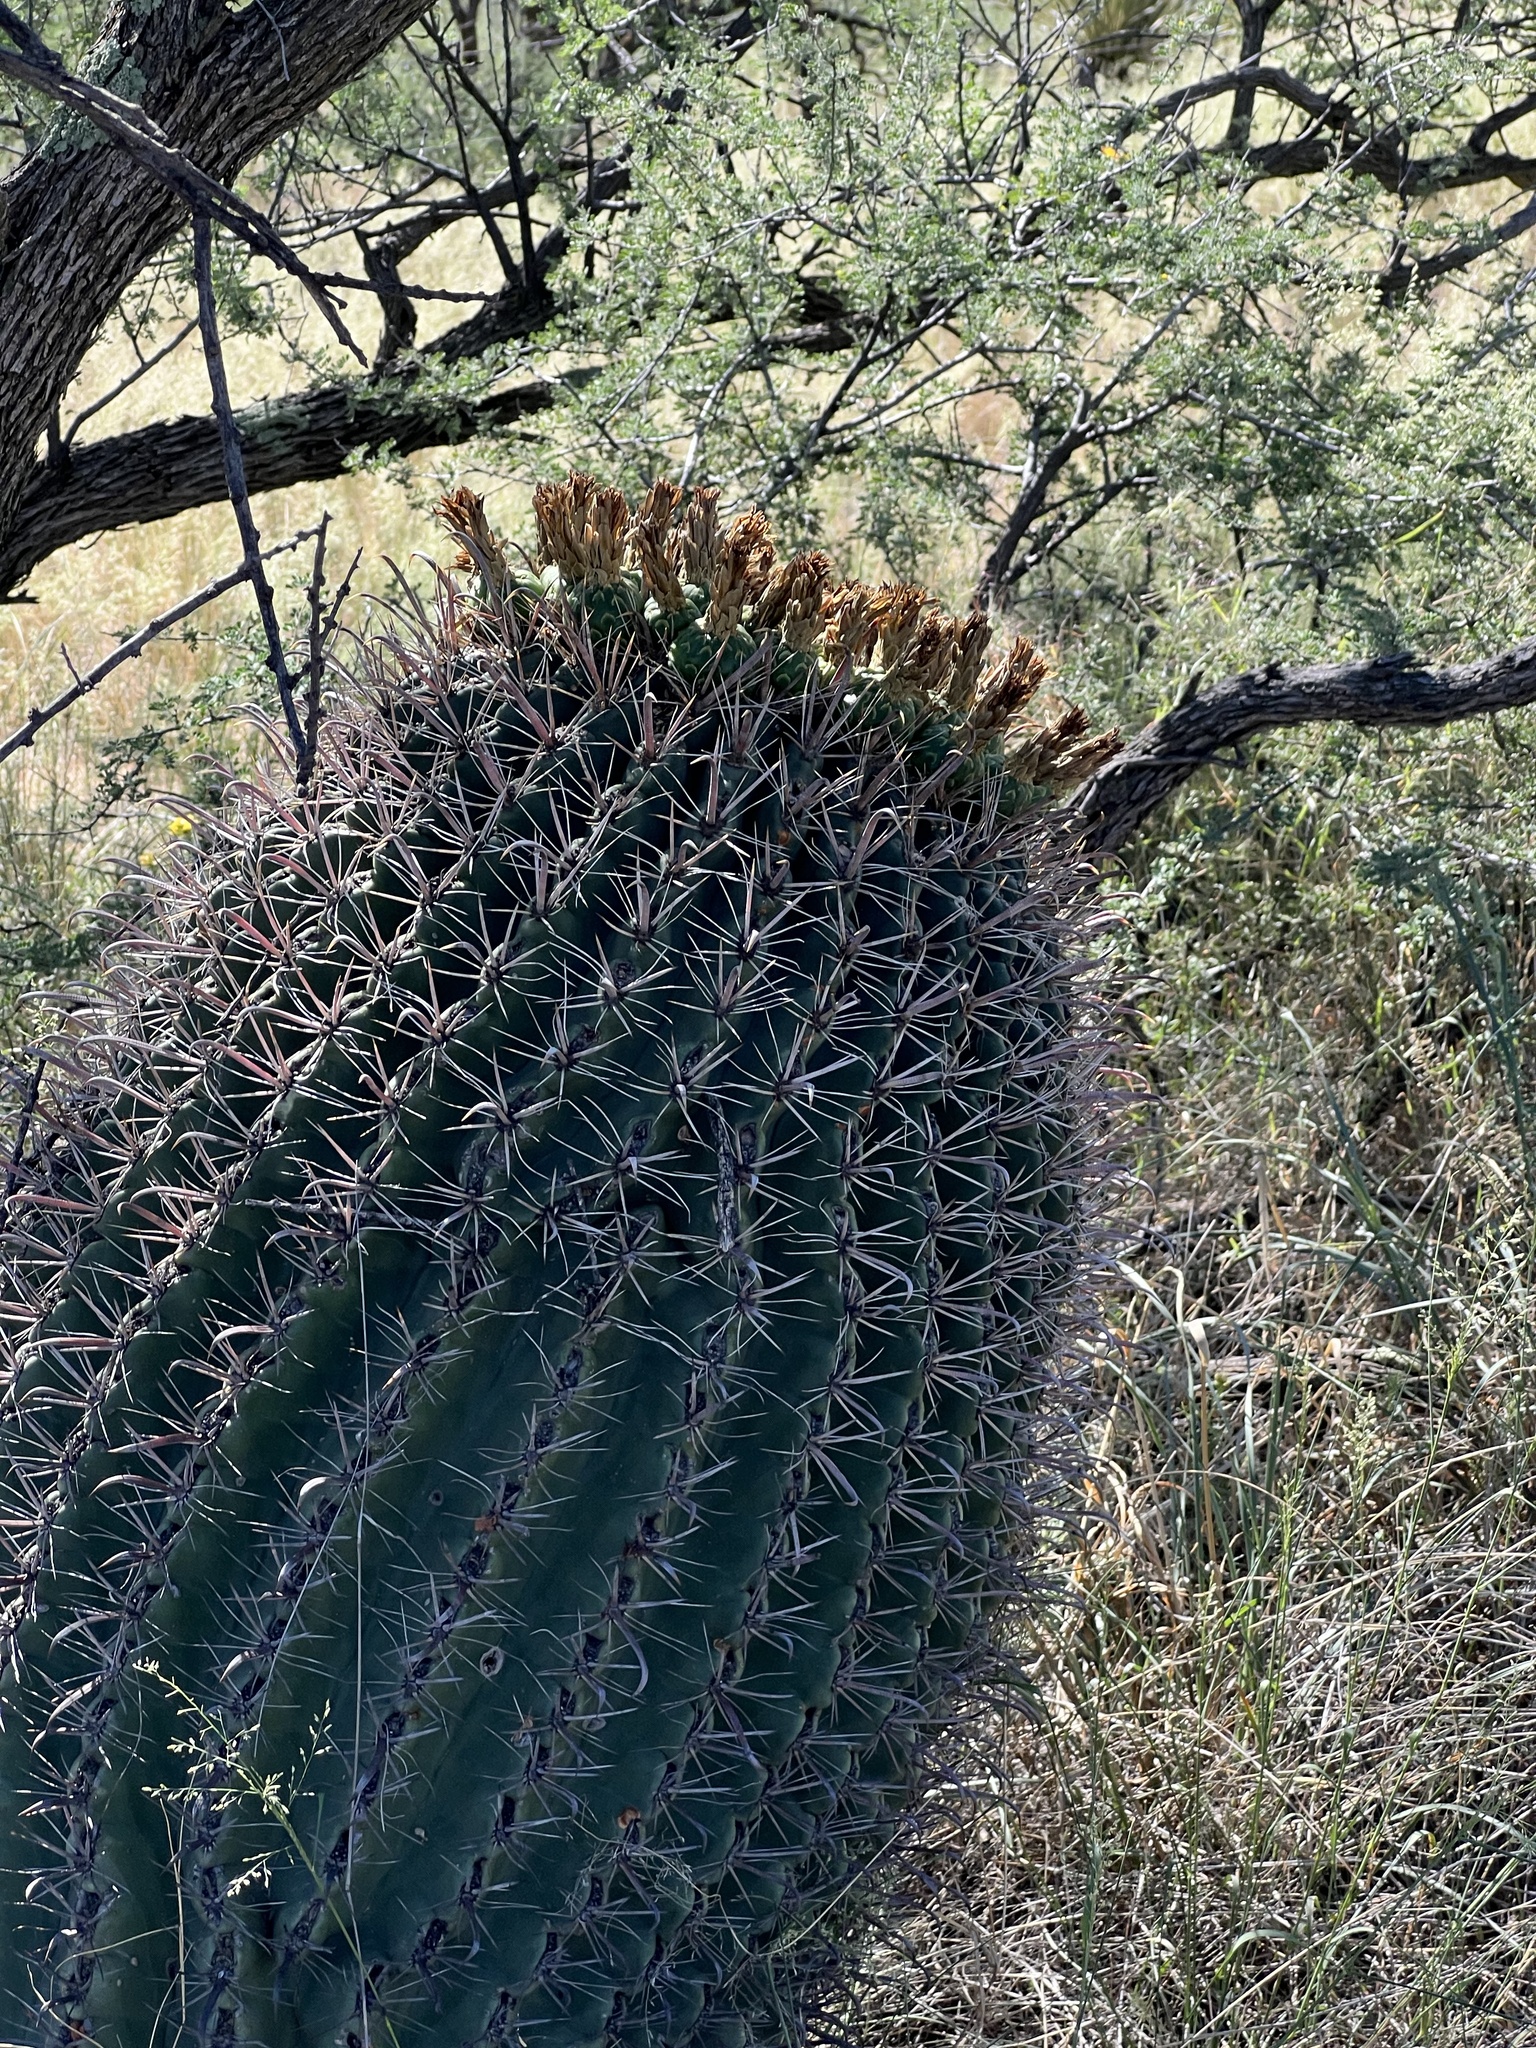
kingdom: Plantae
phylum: Tracheophyta
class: Magnoliopsida
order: Caryophyllales
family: Cactaceae
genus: Ferocactus
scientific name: Ferocactus wislizeni
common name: Candy barrel cactus
